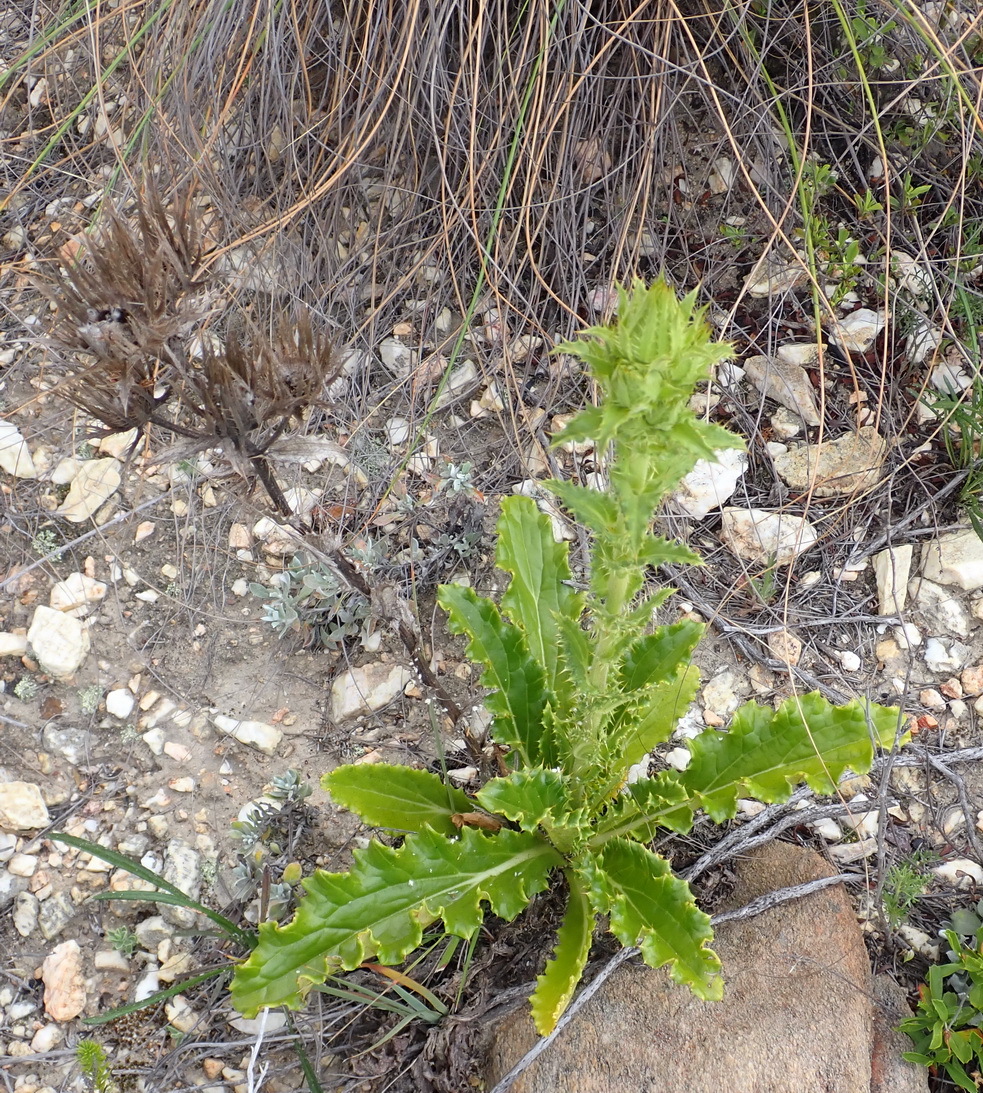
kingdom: Plantae
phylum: Tracheophyta
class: Magnoliopsida
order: Asterales
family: Asteraceae
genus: Berkheya
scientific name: Berkheya carlinoides
